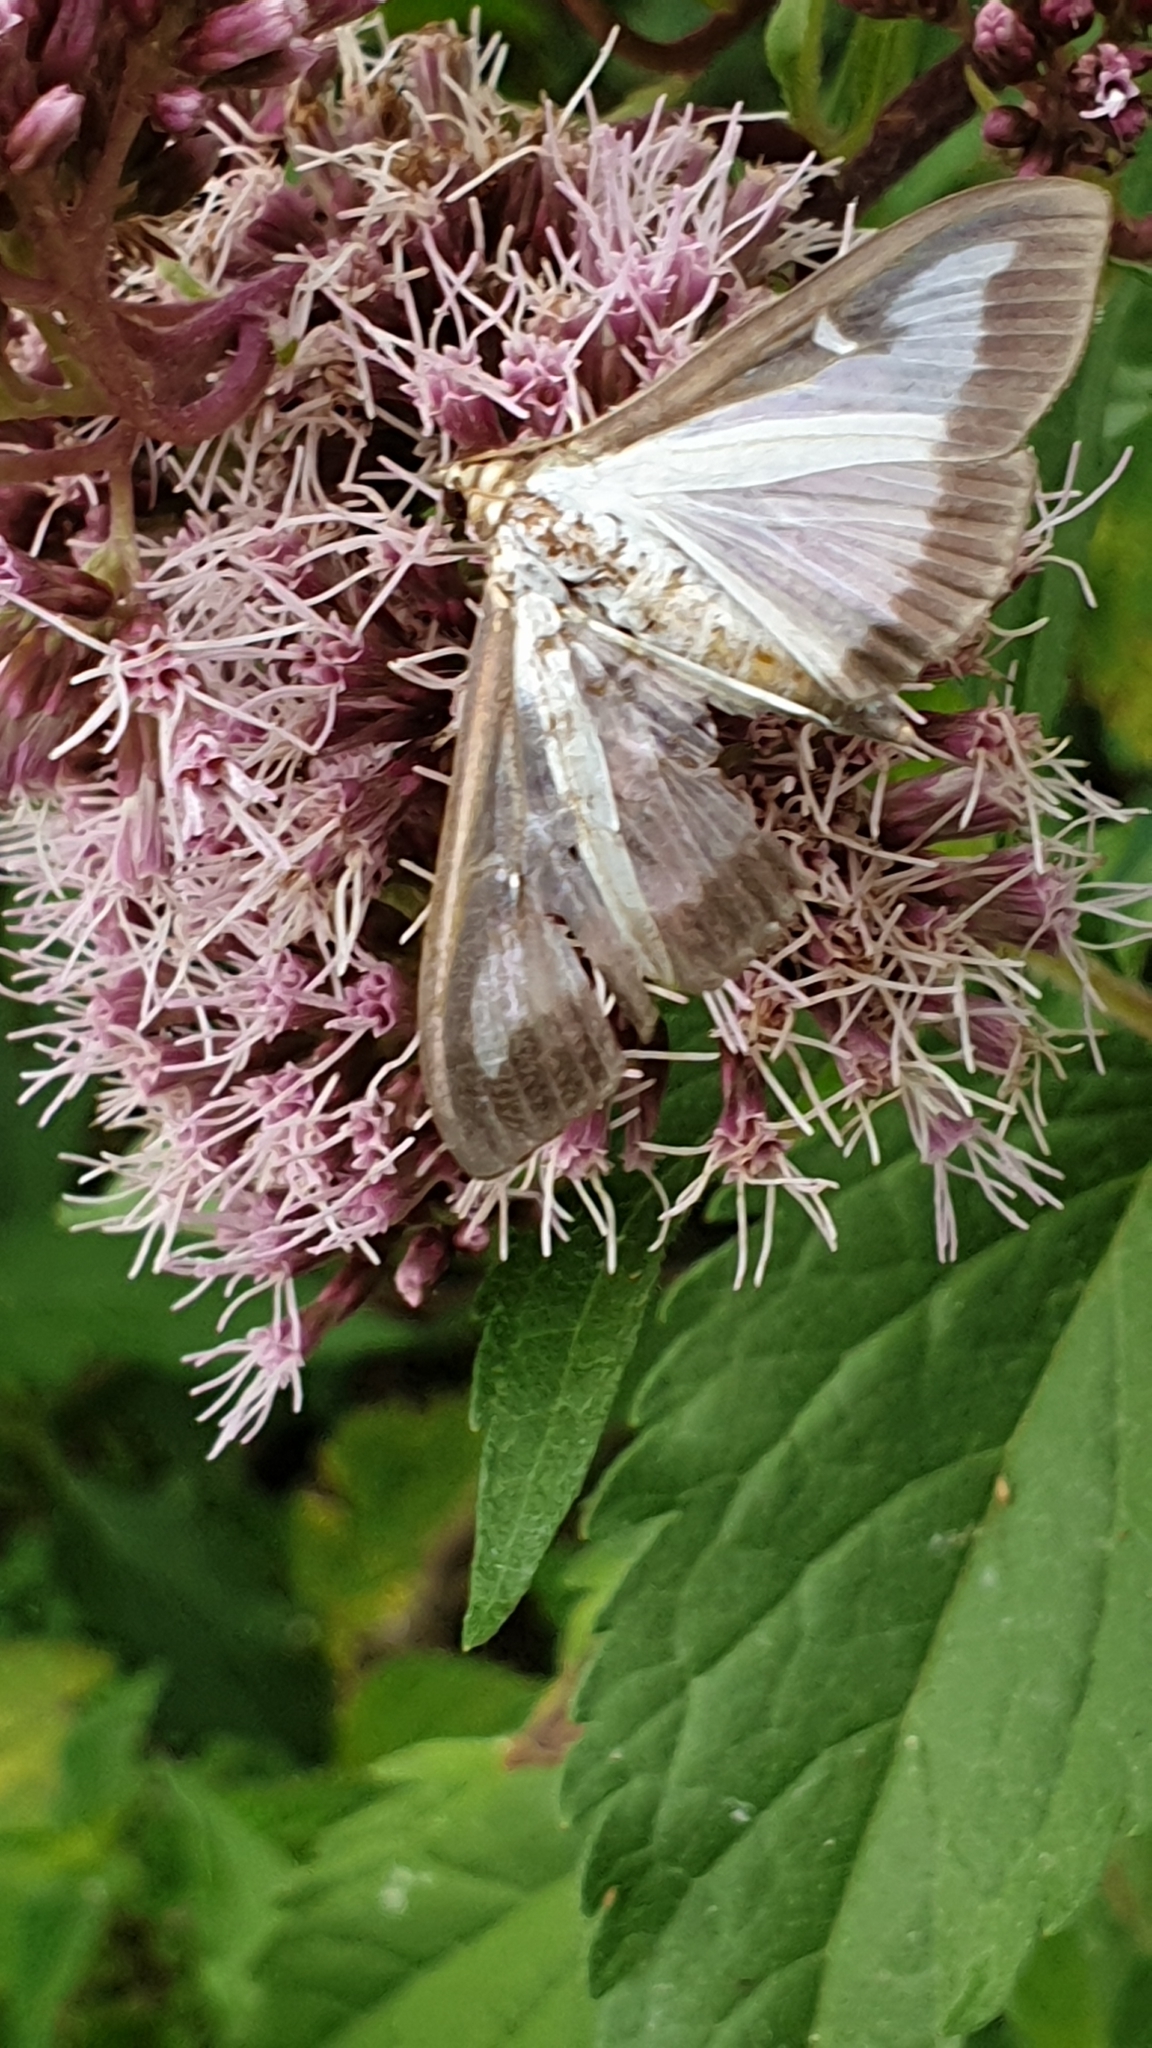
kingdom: Animalia
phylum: Arthropoda
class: Insecta
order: Lepidoptera
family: Crambidae
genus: Cydalima
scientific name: Cydalima perspectalis
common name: Box tree moth
